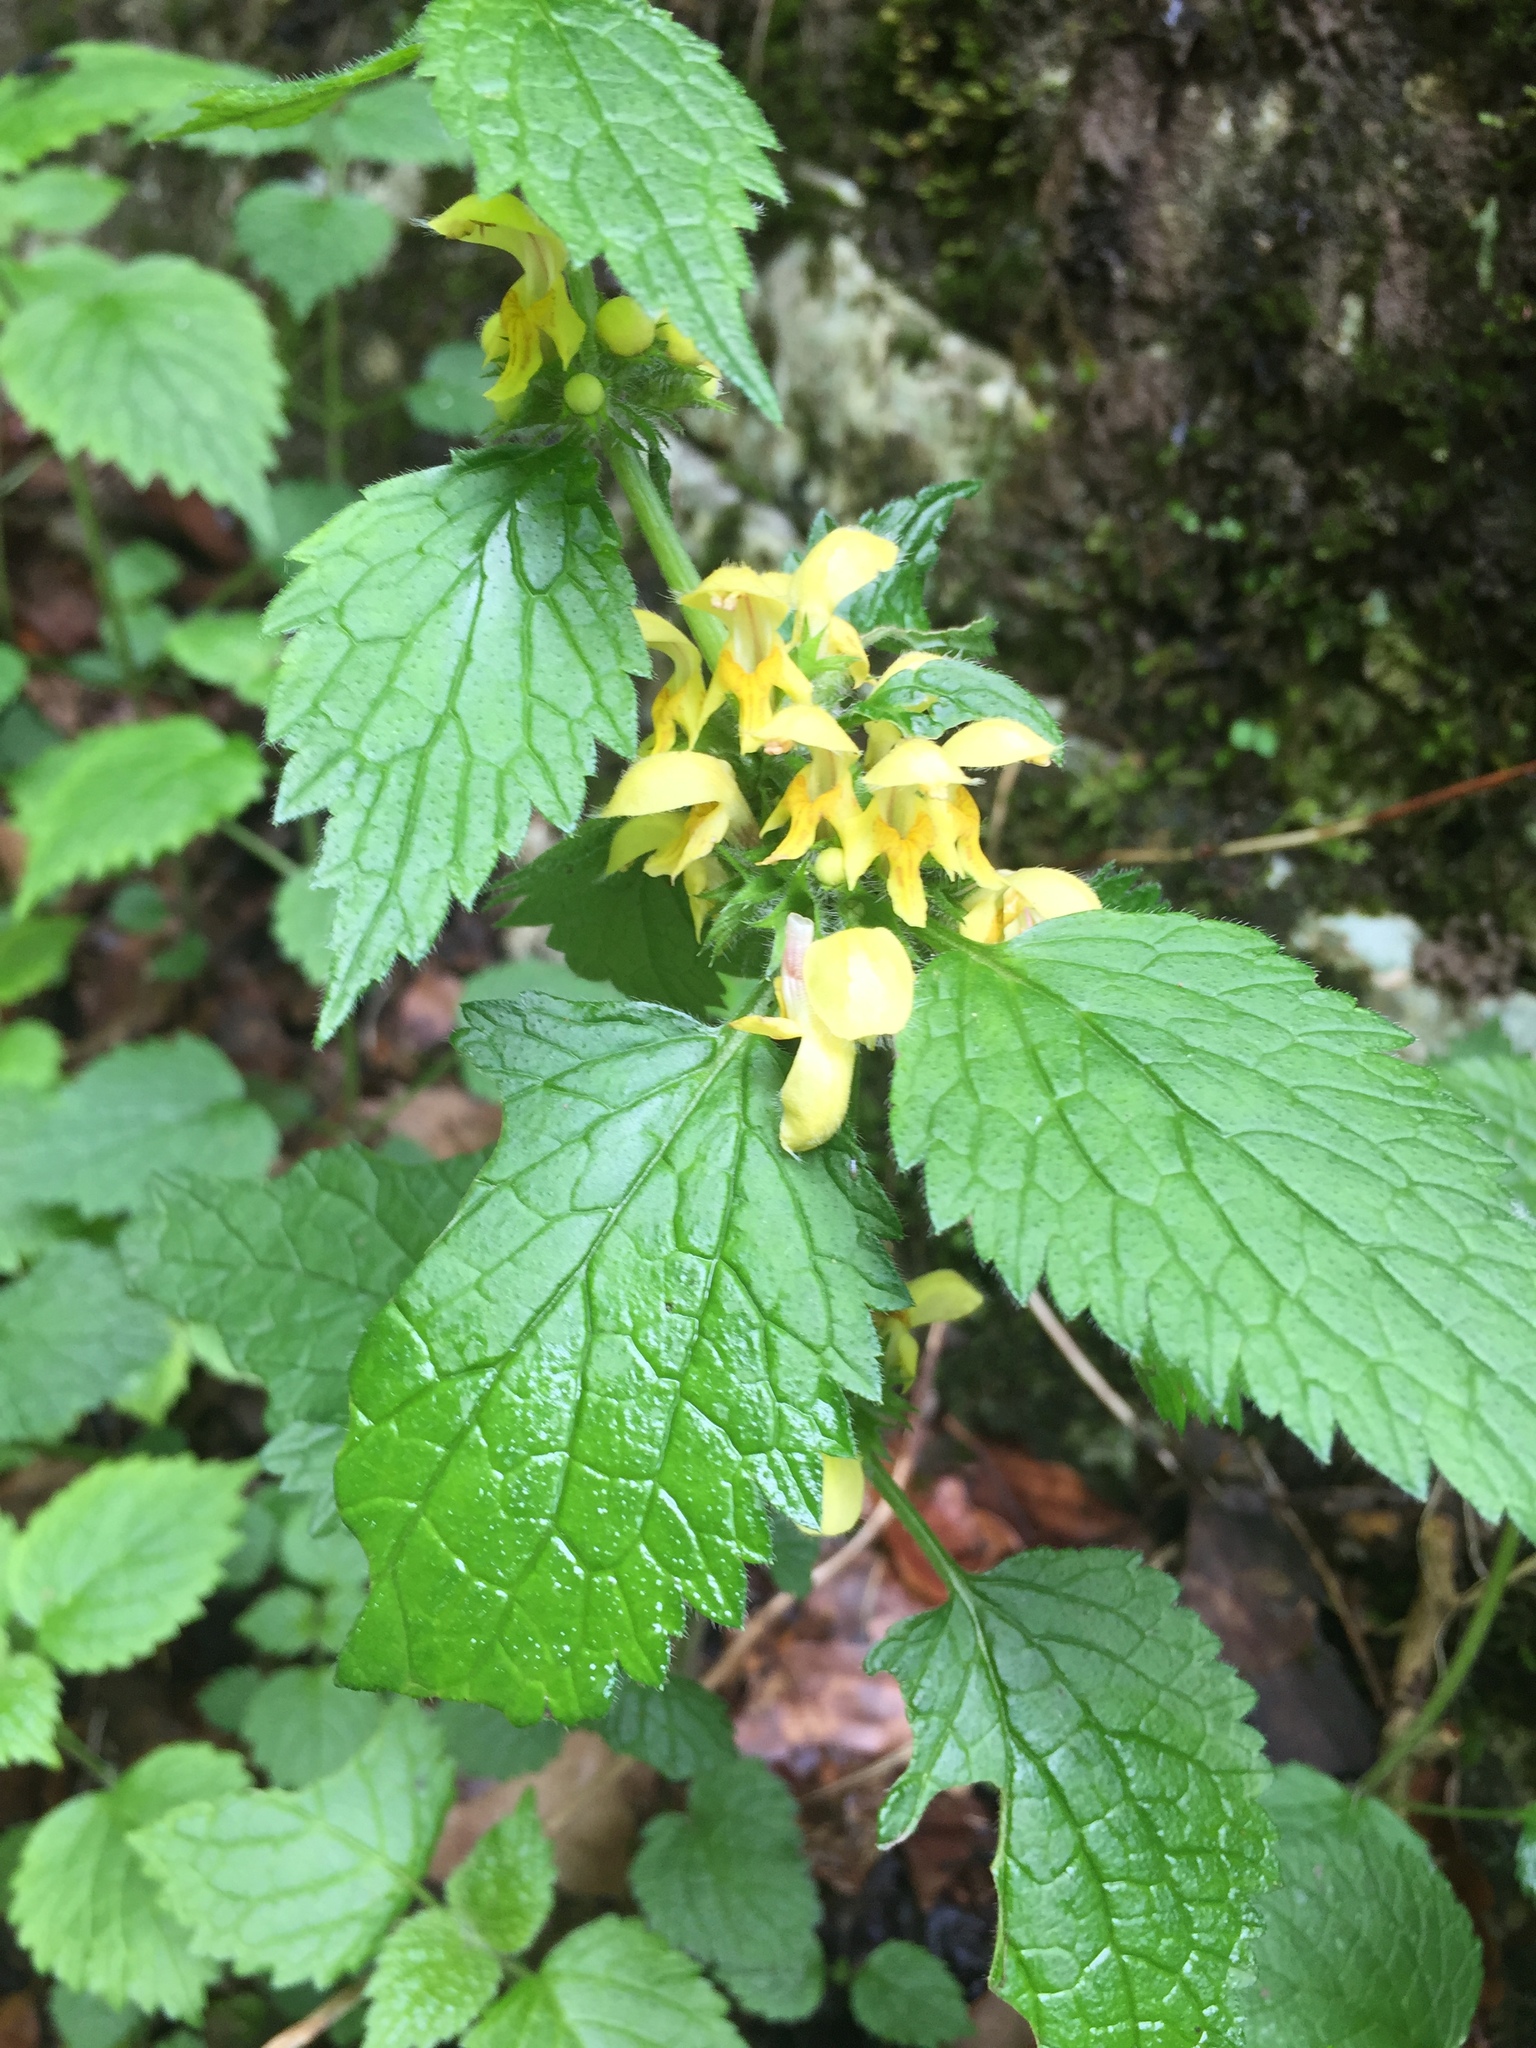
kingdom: Plantae
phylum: Tracheophyta
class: Magnoliopsida
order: Lamiales
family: Lamiaceae
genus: Lamium
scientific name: Lamium galeobdolon
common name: Yellow archangel
